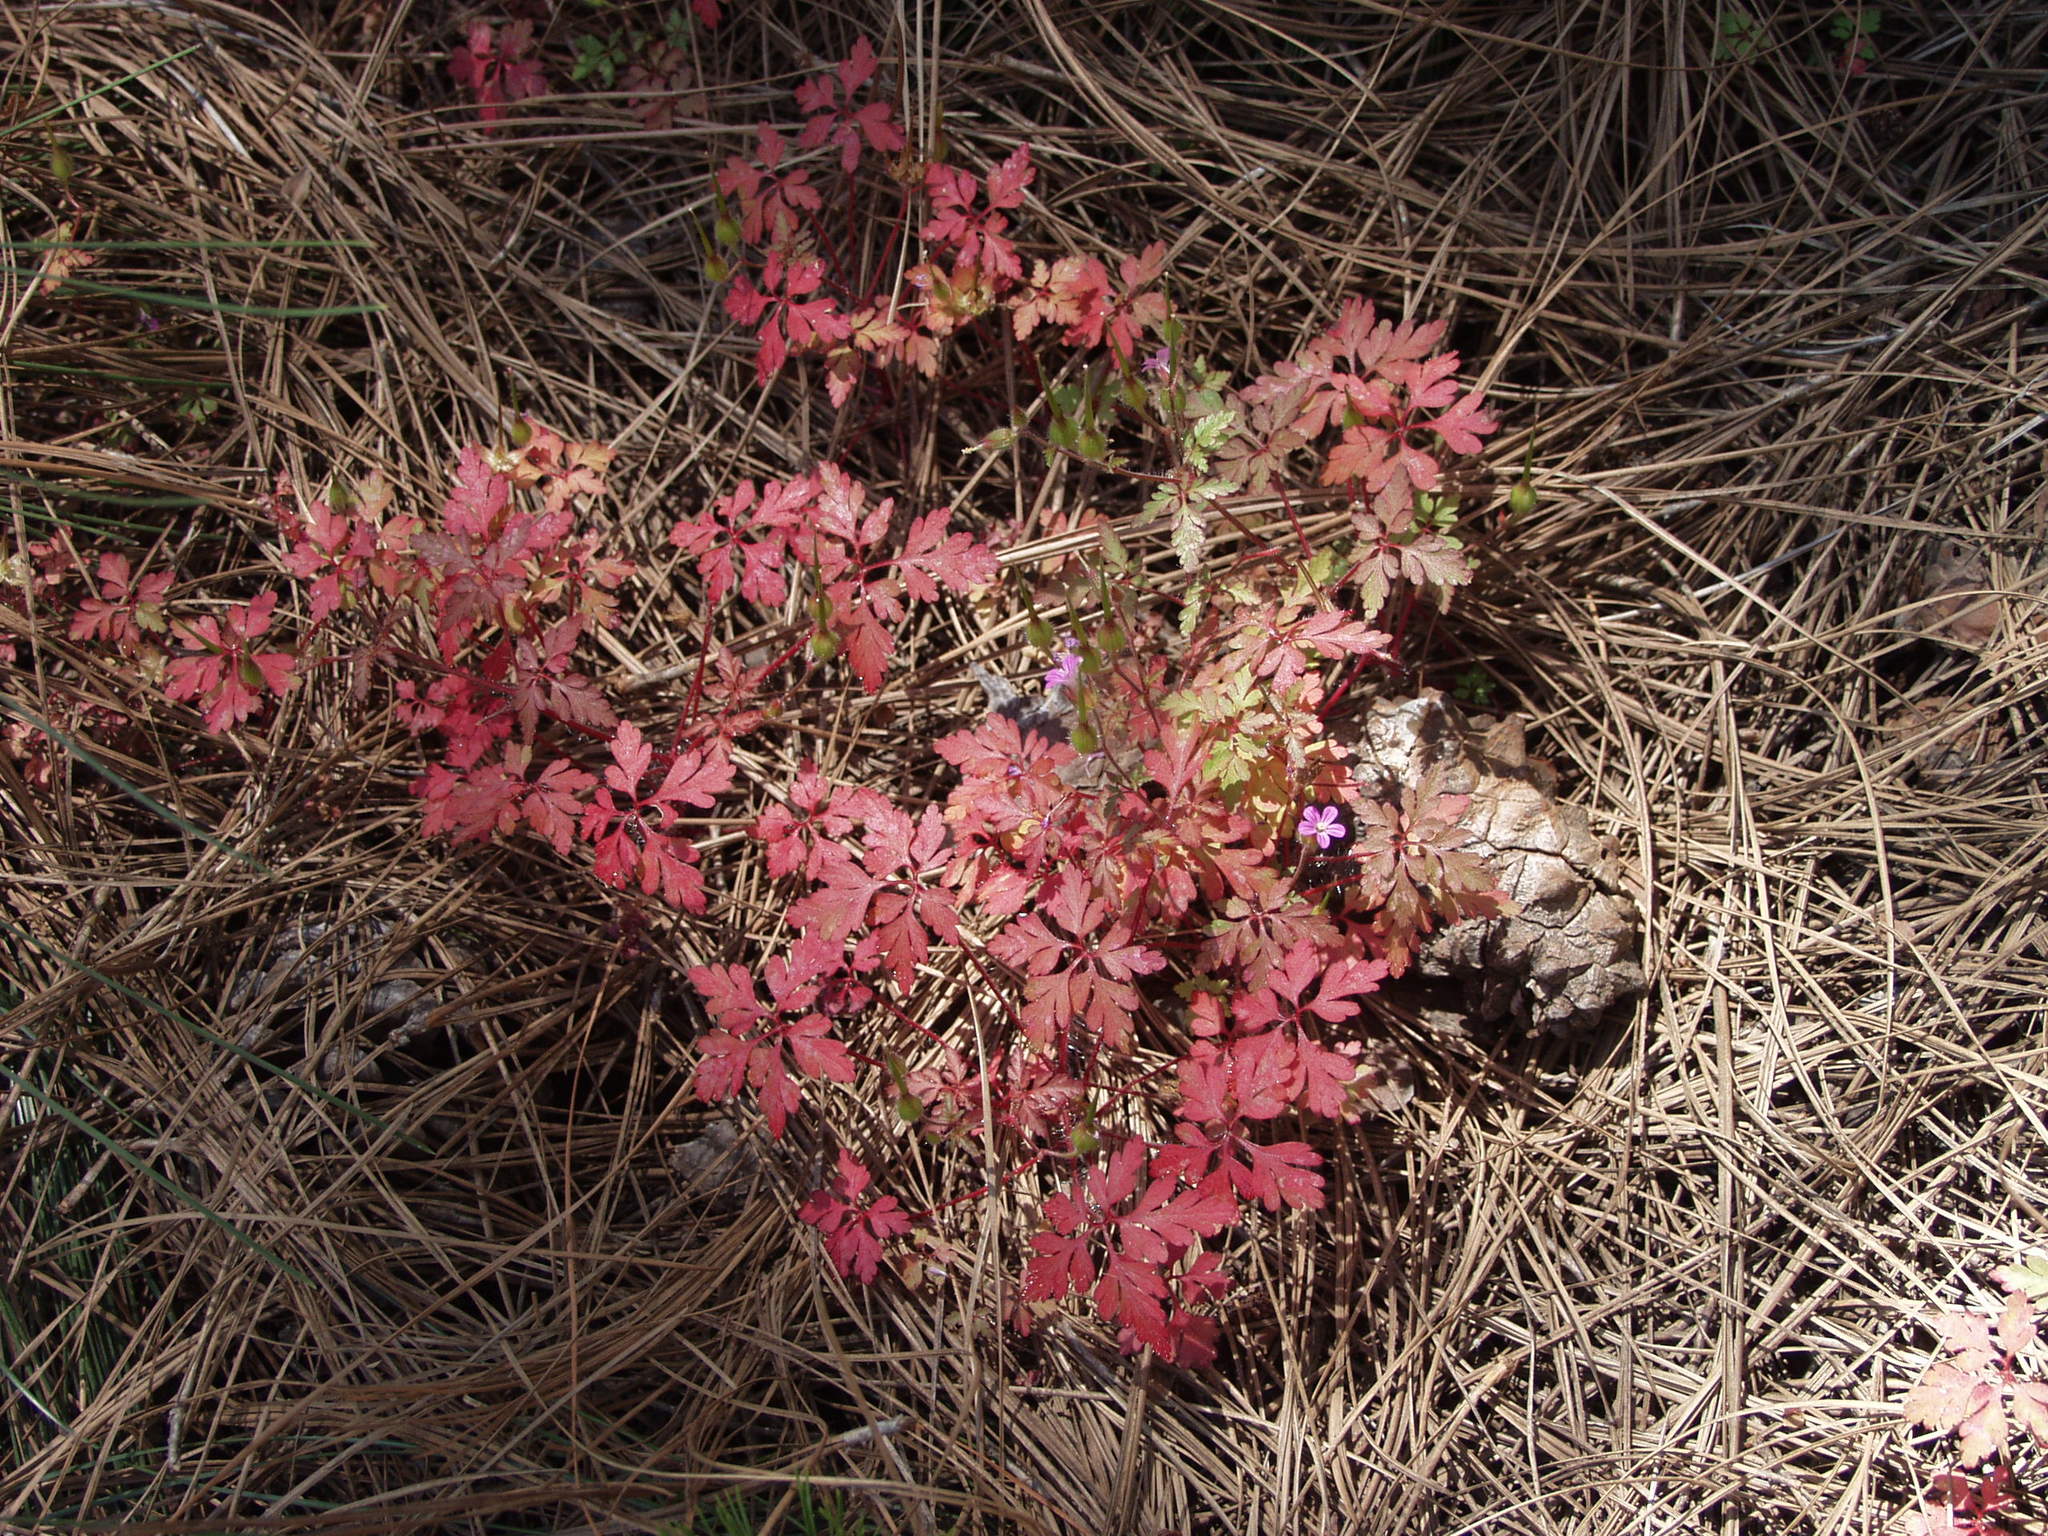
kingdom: Plantae
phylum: Tracheophyta
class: Magnoliopsida
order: Geraniales
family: Geraniaceae
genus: Geranium
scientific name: Geranium purpureum
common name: Little-robin
